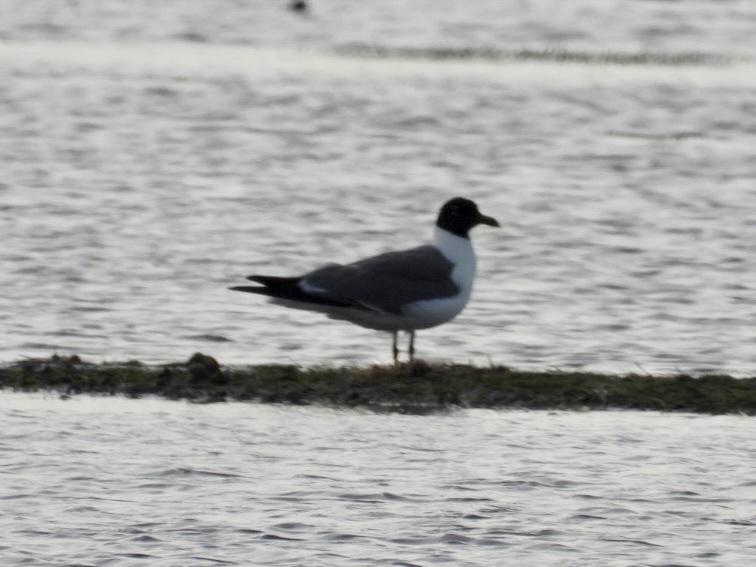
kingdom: Animalia
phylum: Chordata
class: Aves
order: Charadriiformes
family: Laridae
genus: Leucophaeus
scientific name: Leucophaeus atricilla
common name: Laughing gull
